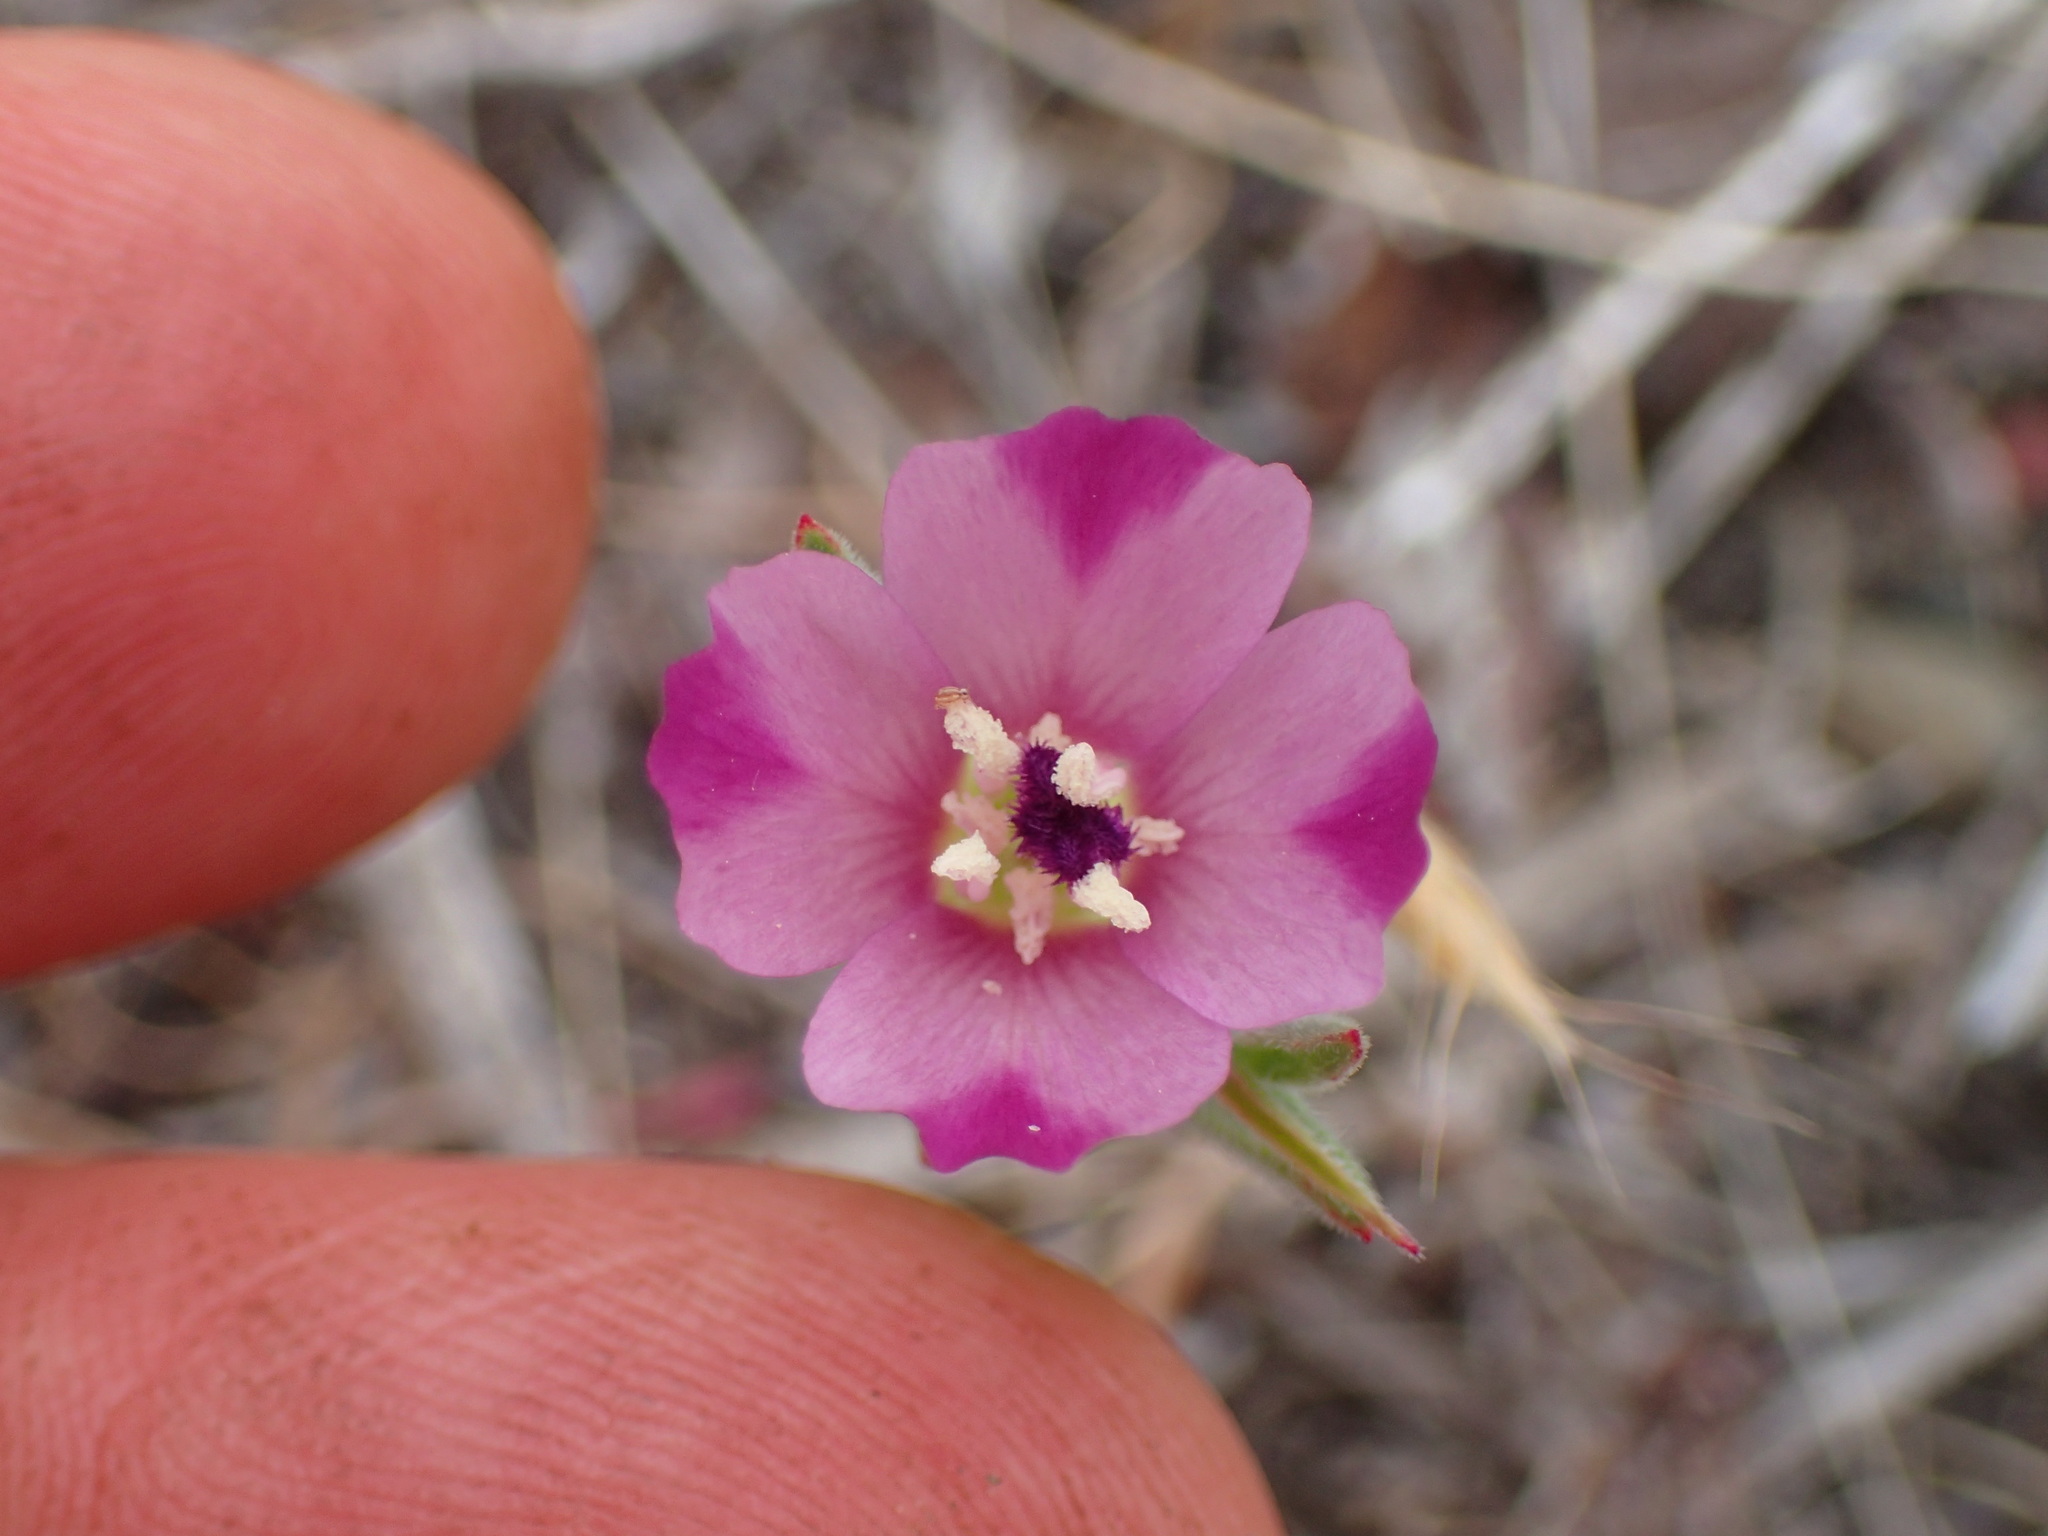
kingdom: Plantae
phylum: Tracheophyta
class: Magnoliopsida
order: Myrtales
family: Onagraceae
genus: Clarkia
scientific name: Clarkia purpurea
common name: Purple clarkia
